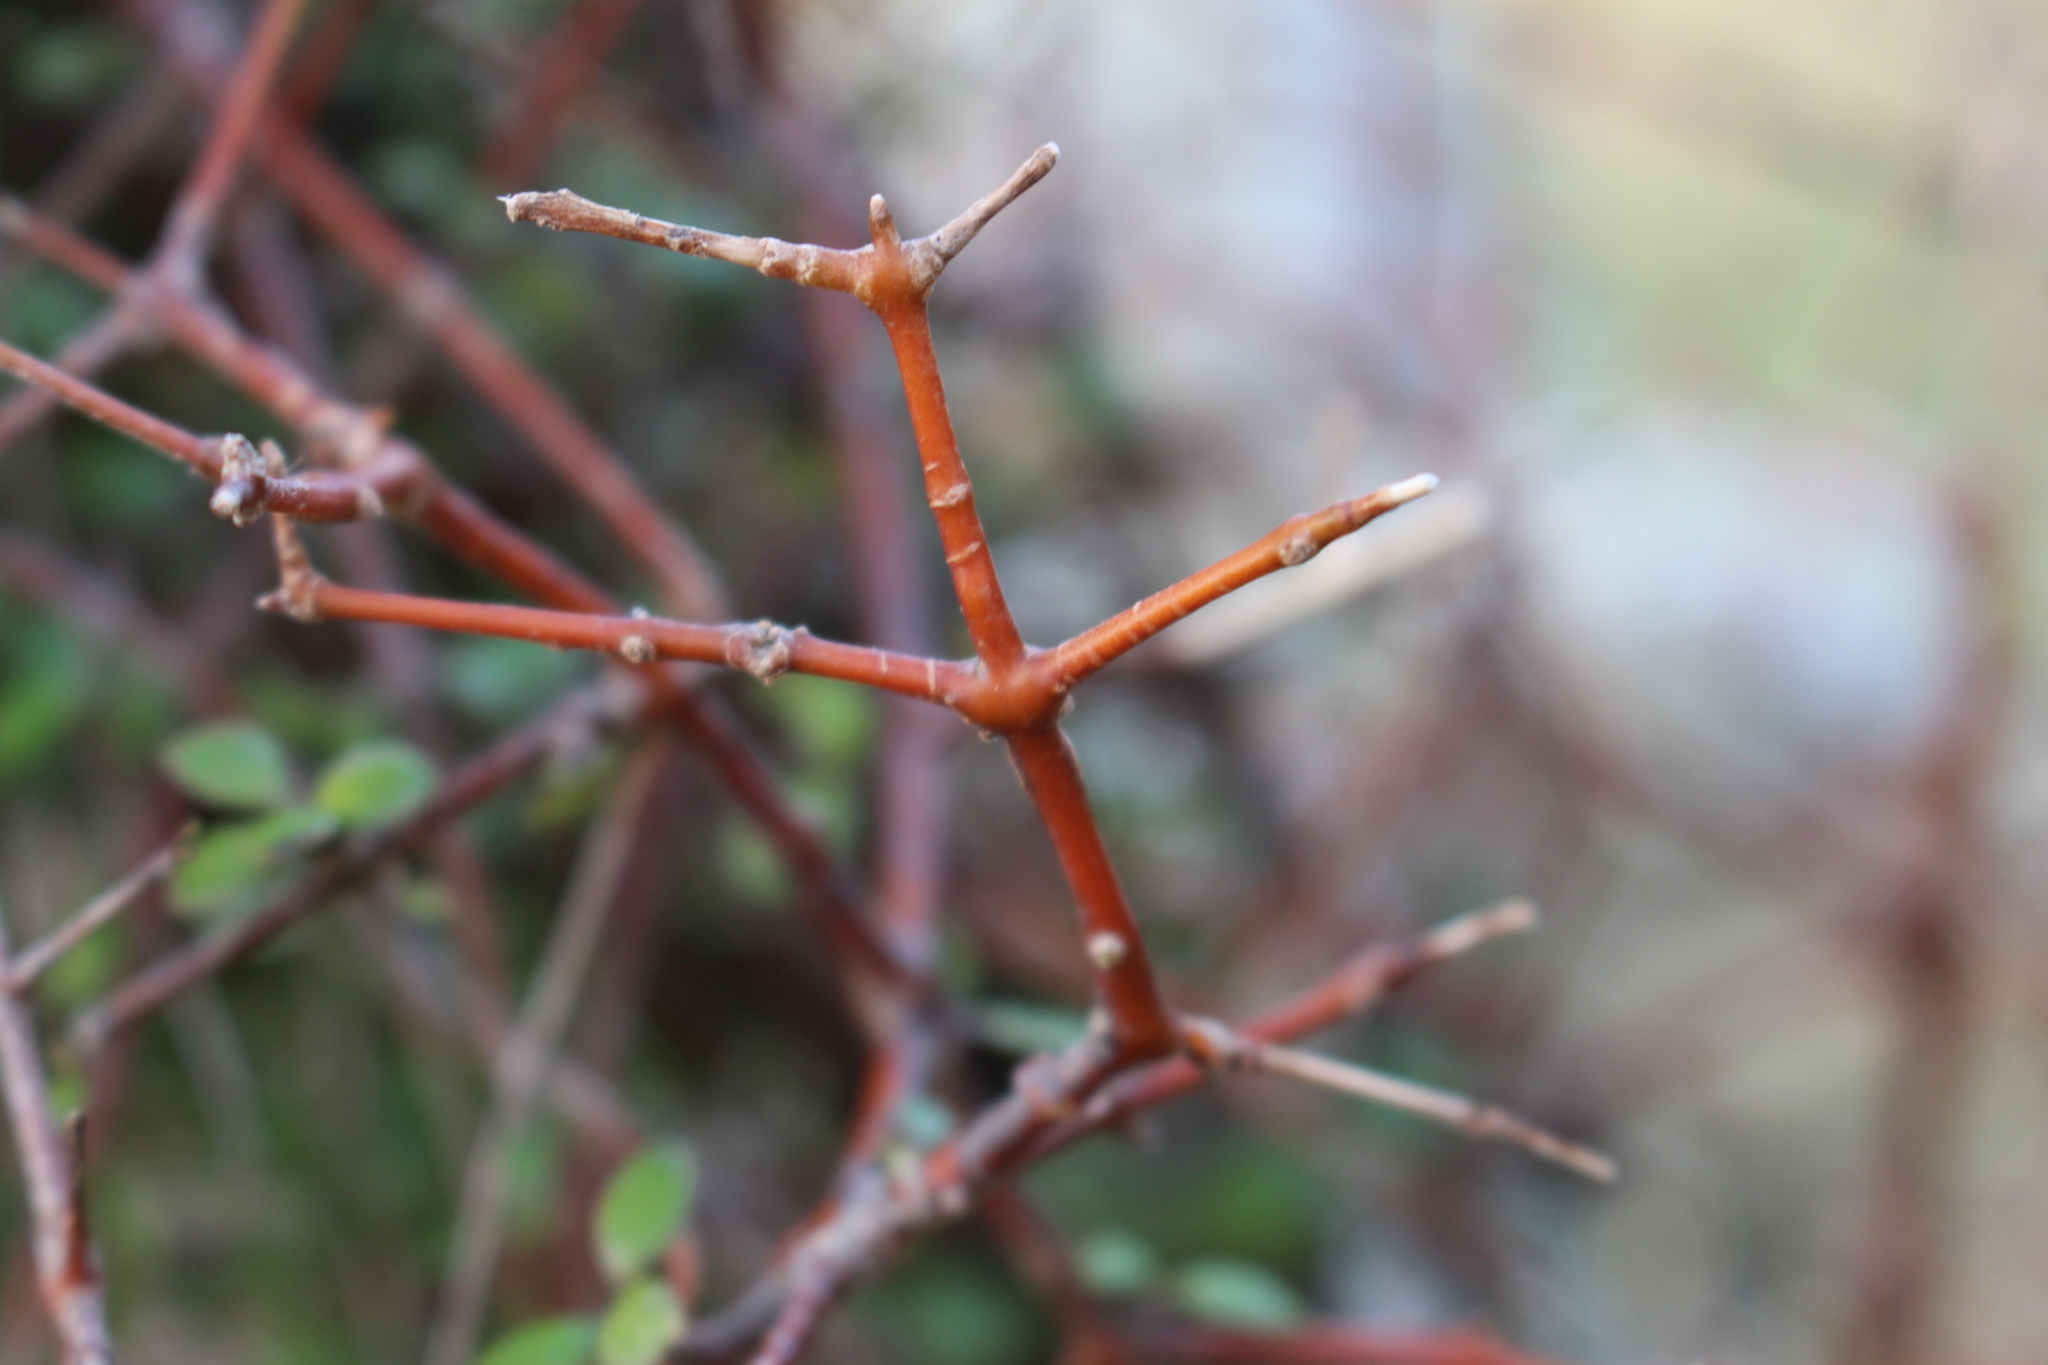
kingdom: Plantae
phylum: Tracheophyta
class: Magnoliopsida
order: Gentianales
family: Rubiaceae
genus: Coprosma
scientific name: Coprosma crassifolia
